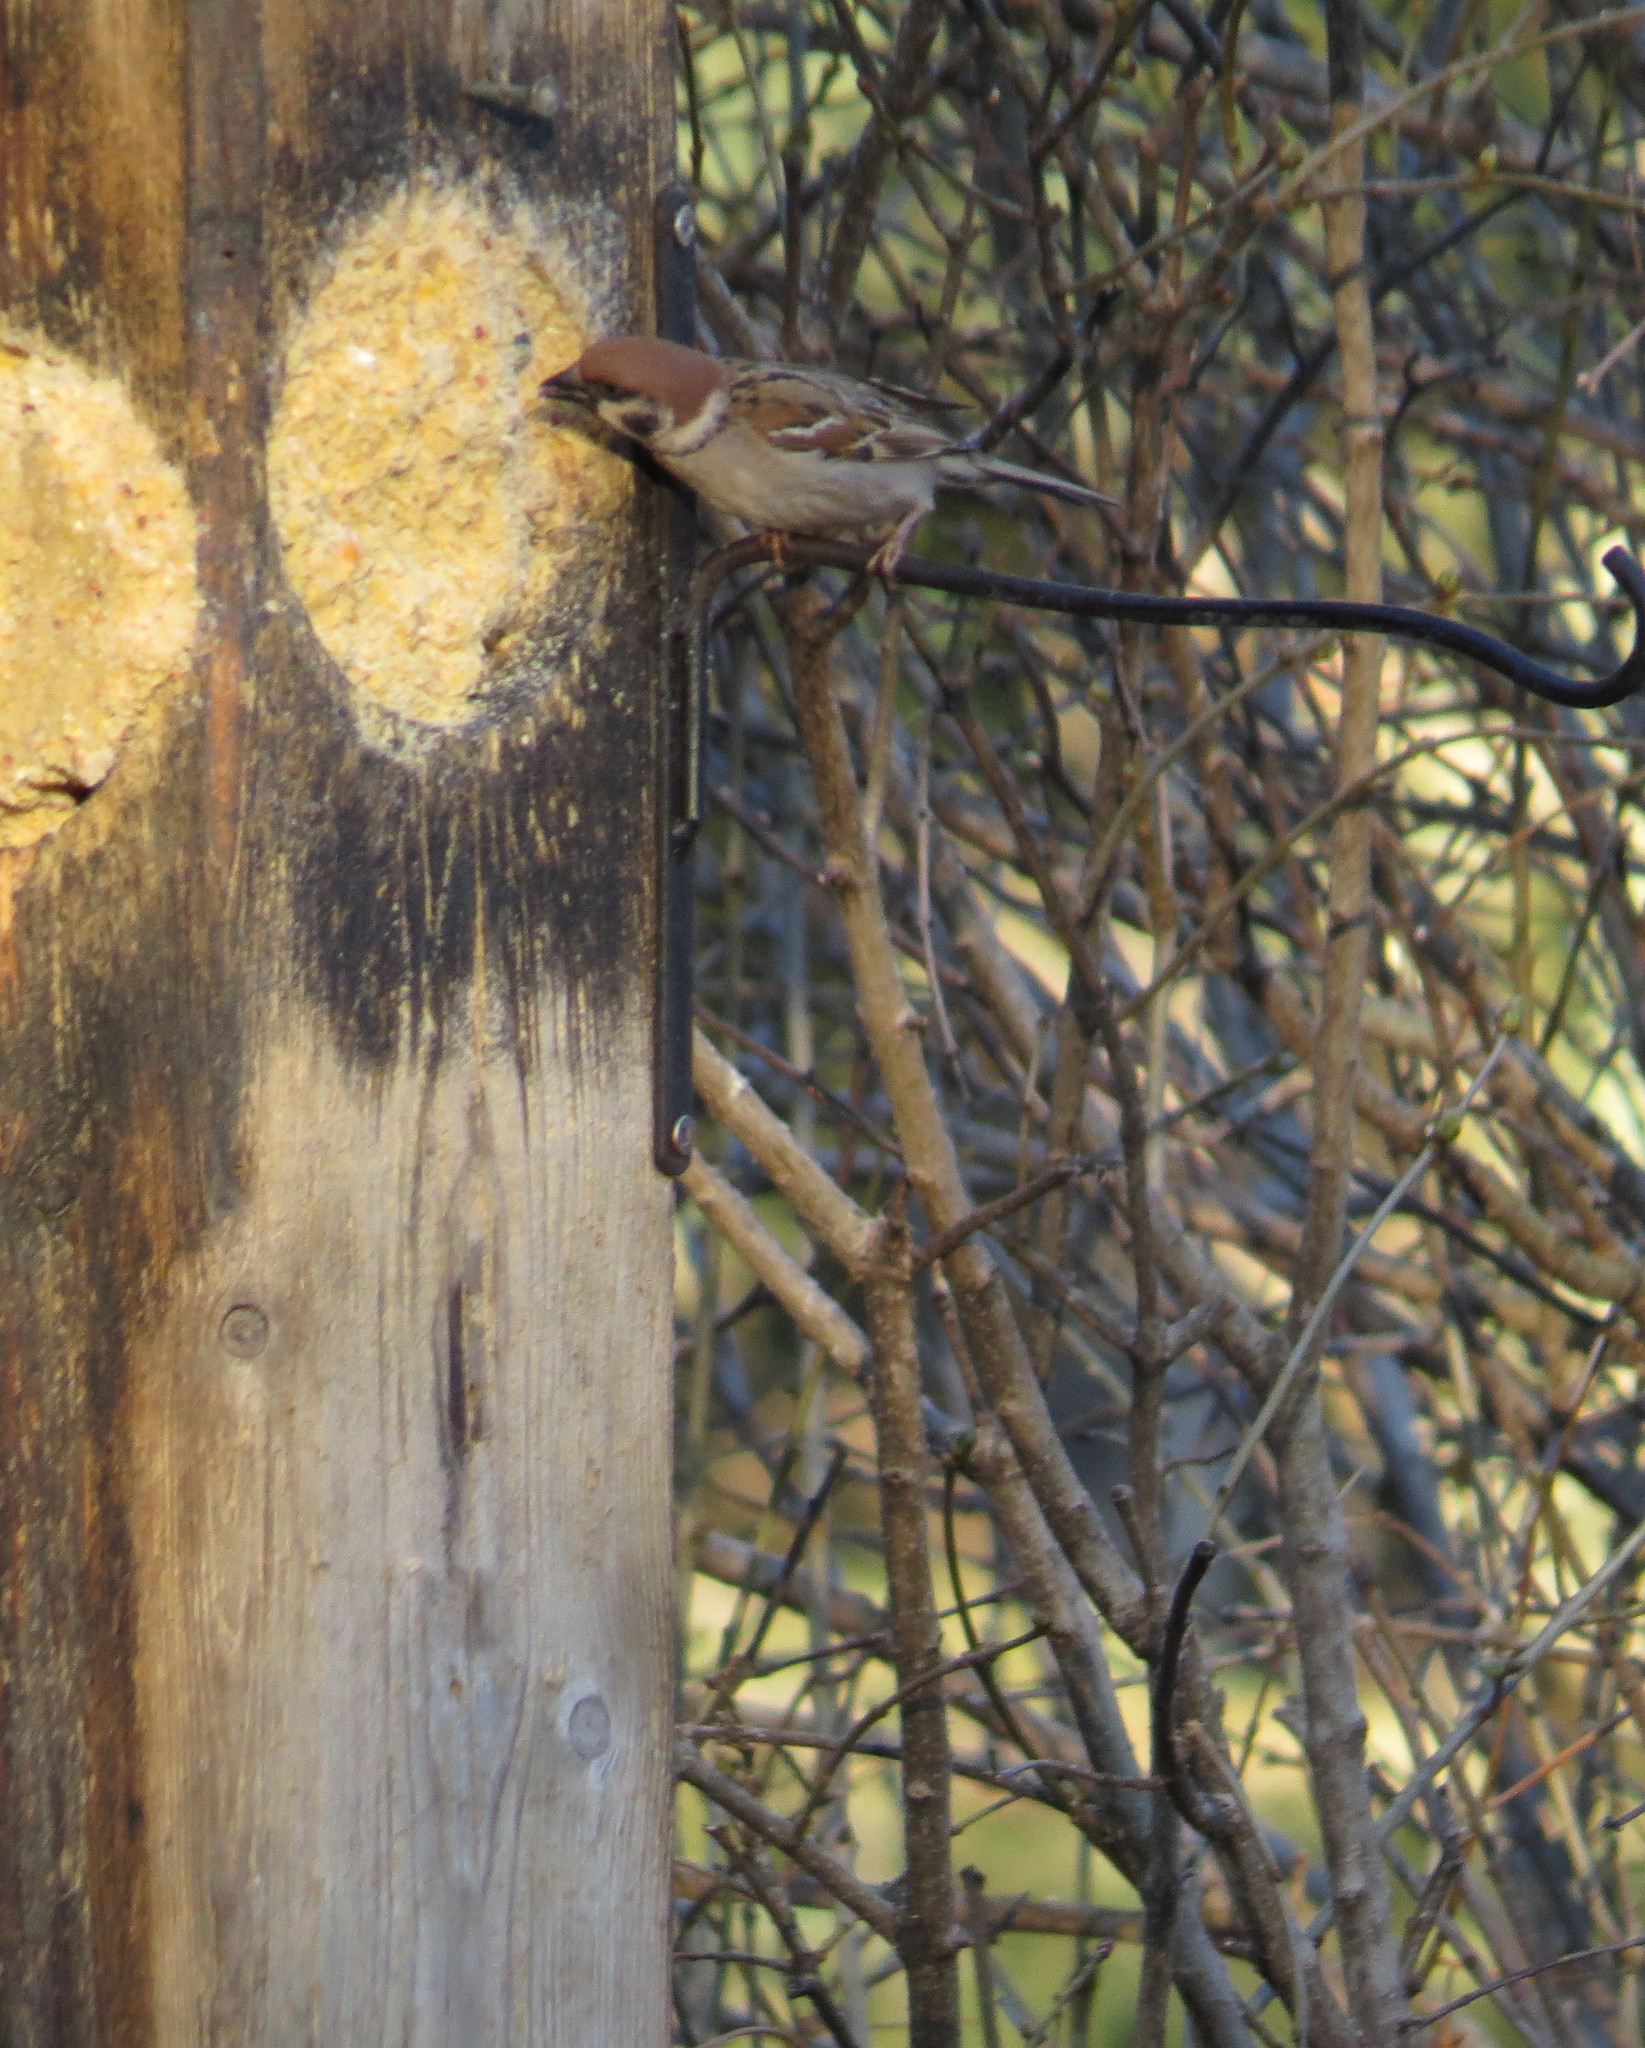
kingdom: Animalia
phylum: Chordata
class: Aves
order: Passeriformes
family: Passeridae
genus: Passer
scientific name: Passer montanus
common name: Eurasian tree sparrow
